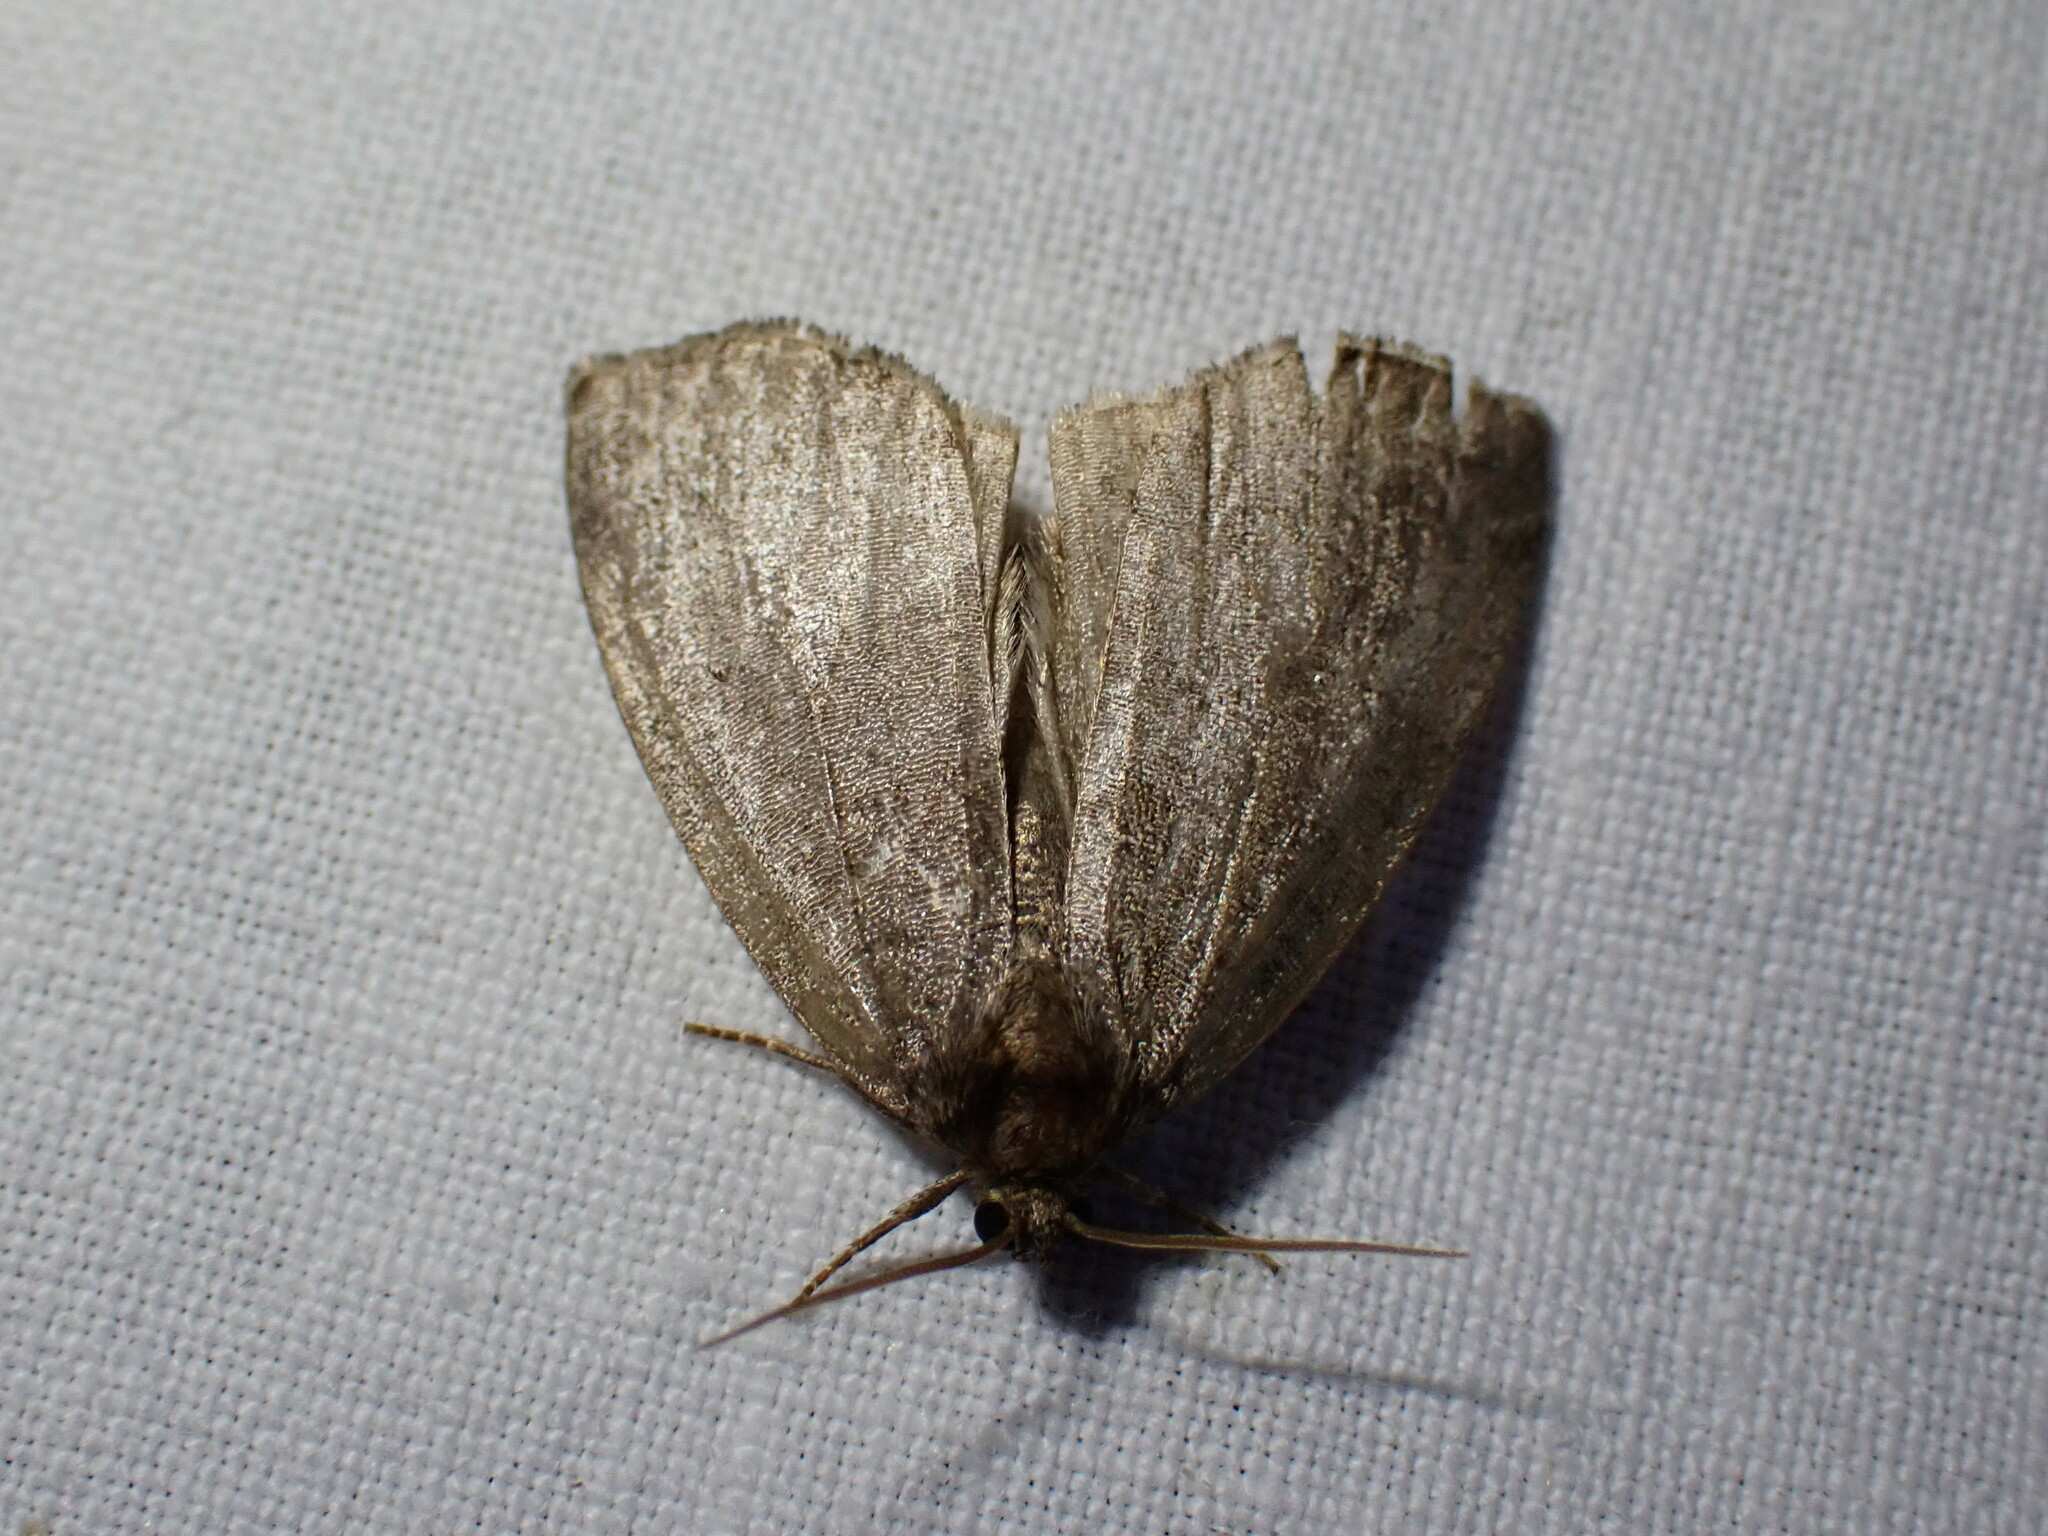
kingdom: Animalia
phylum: Arthropoda
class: Insecta
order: Lepidoptera
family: Drepanidae
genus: Ochropacha
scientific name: Ochropacha duplaris
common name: Common lutestring
